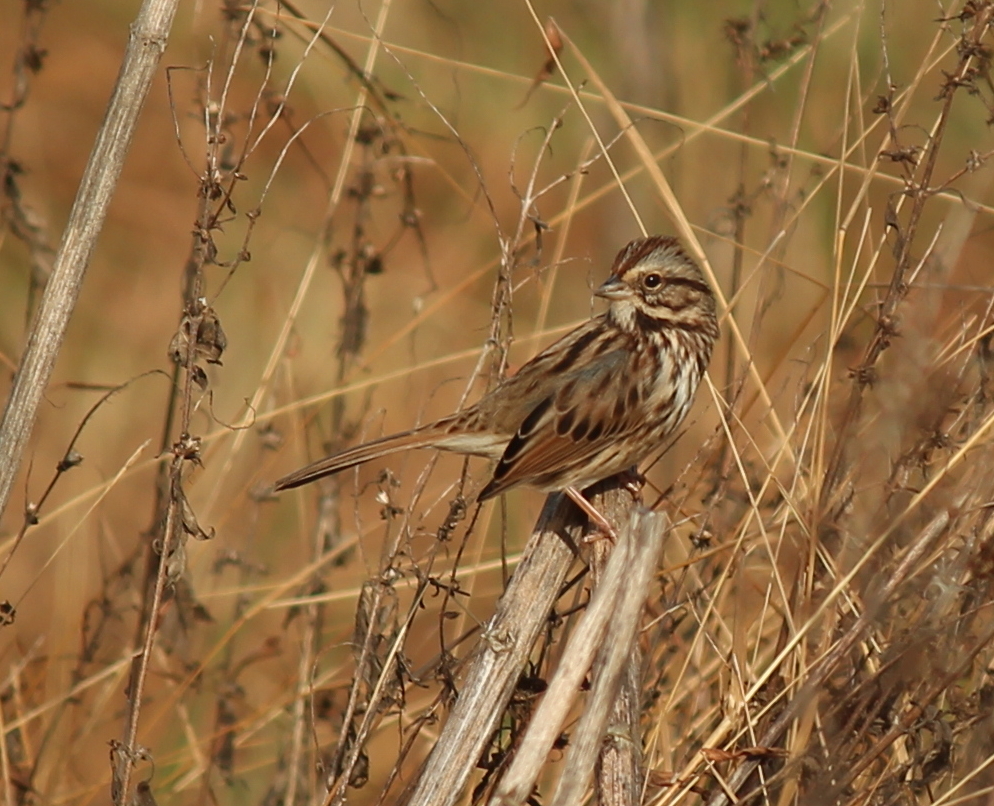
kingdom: Animalia
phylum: Chordata
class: Aves
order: Passeriformes
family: Passerellidae
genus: Melospiza
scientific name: Melospiza melodia
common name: Song sparrow
